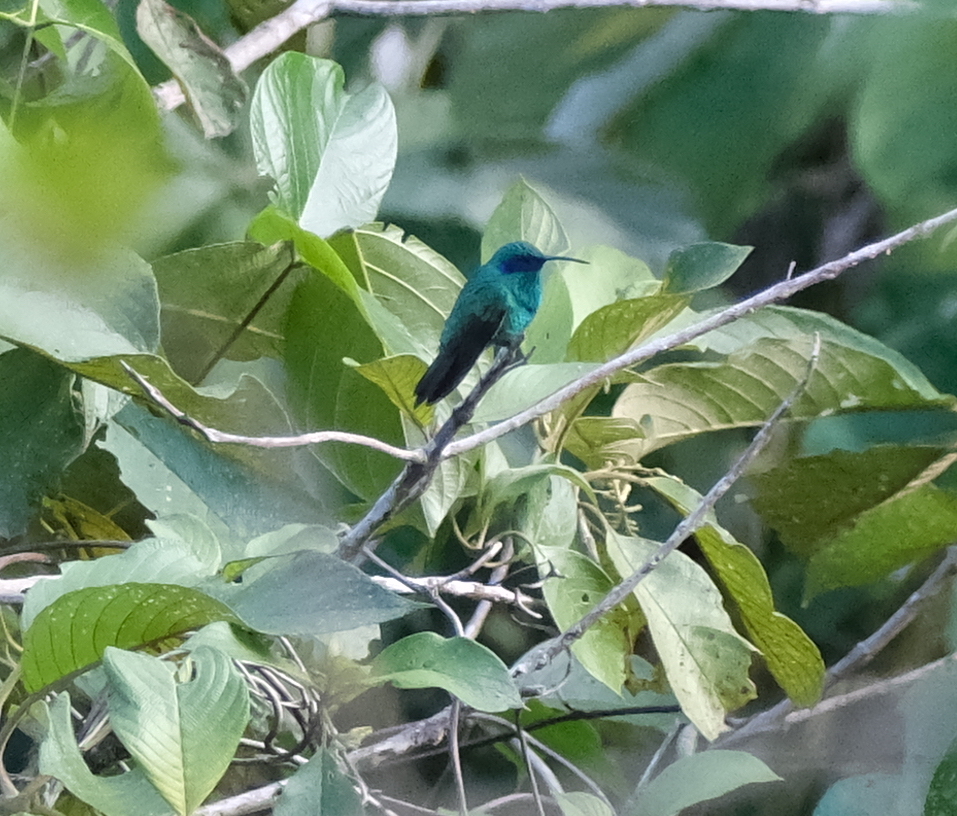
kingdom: Animalia
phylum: Chordata
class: Aves
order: Apodiformes
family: Trochilidae
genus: Colibri
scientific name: Colibri coruscans
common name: Sparkling violetear
